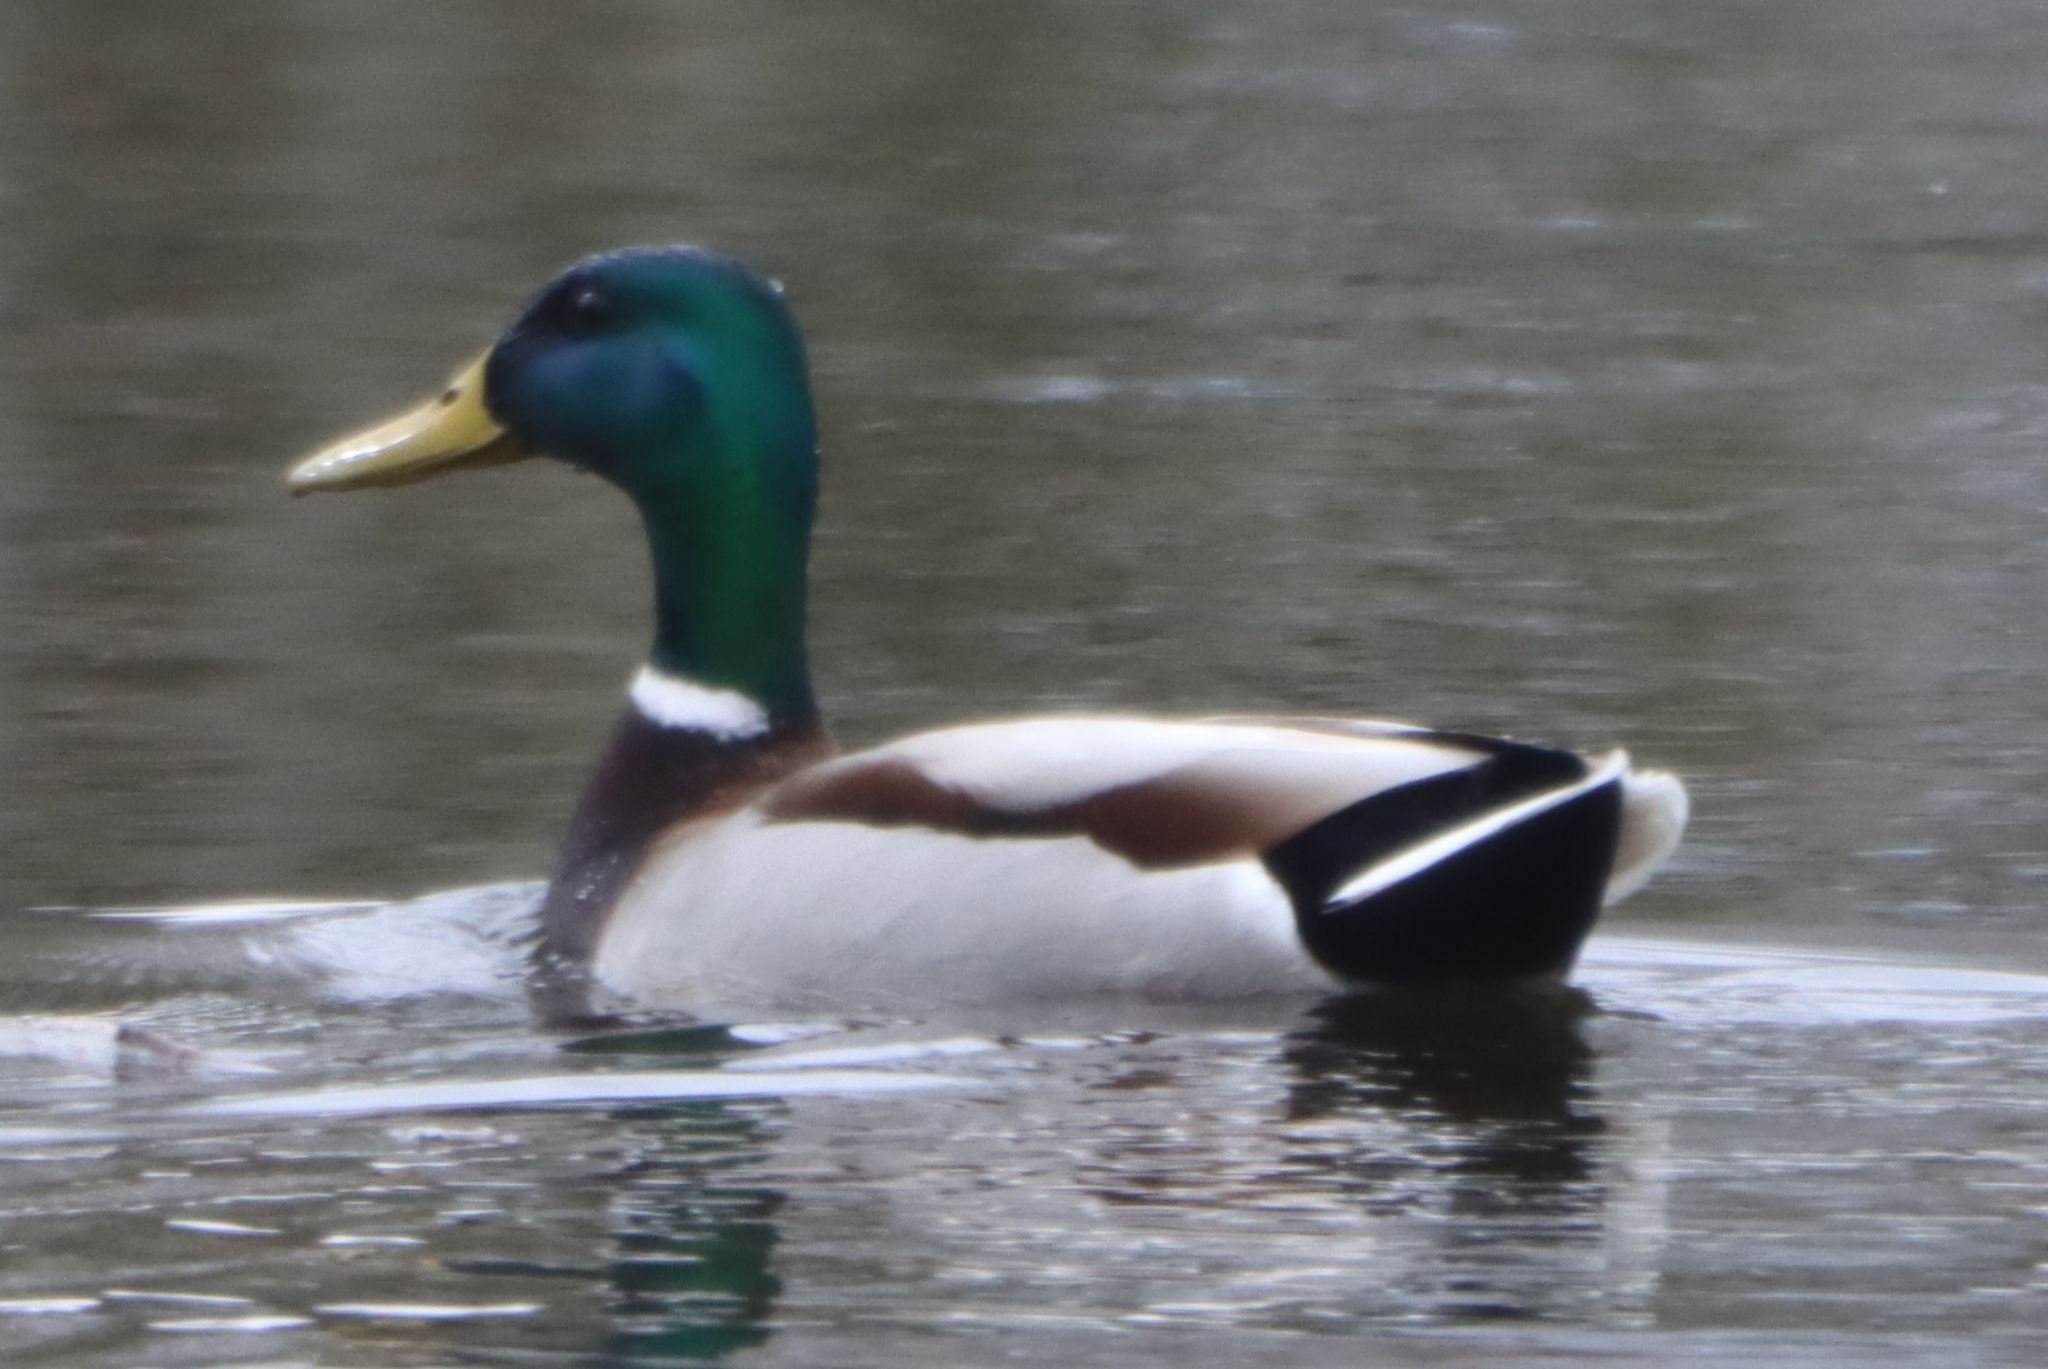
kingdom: Animalia
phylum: Chordata
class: Aves
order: Anseriformes
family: Anatidae
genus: Anas
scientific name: Anas platyrhynchos
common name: Mallard
